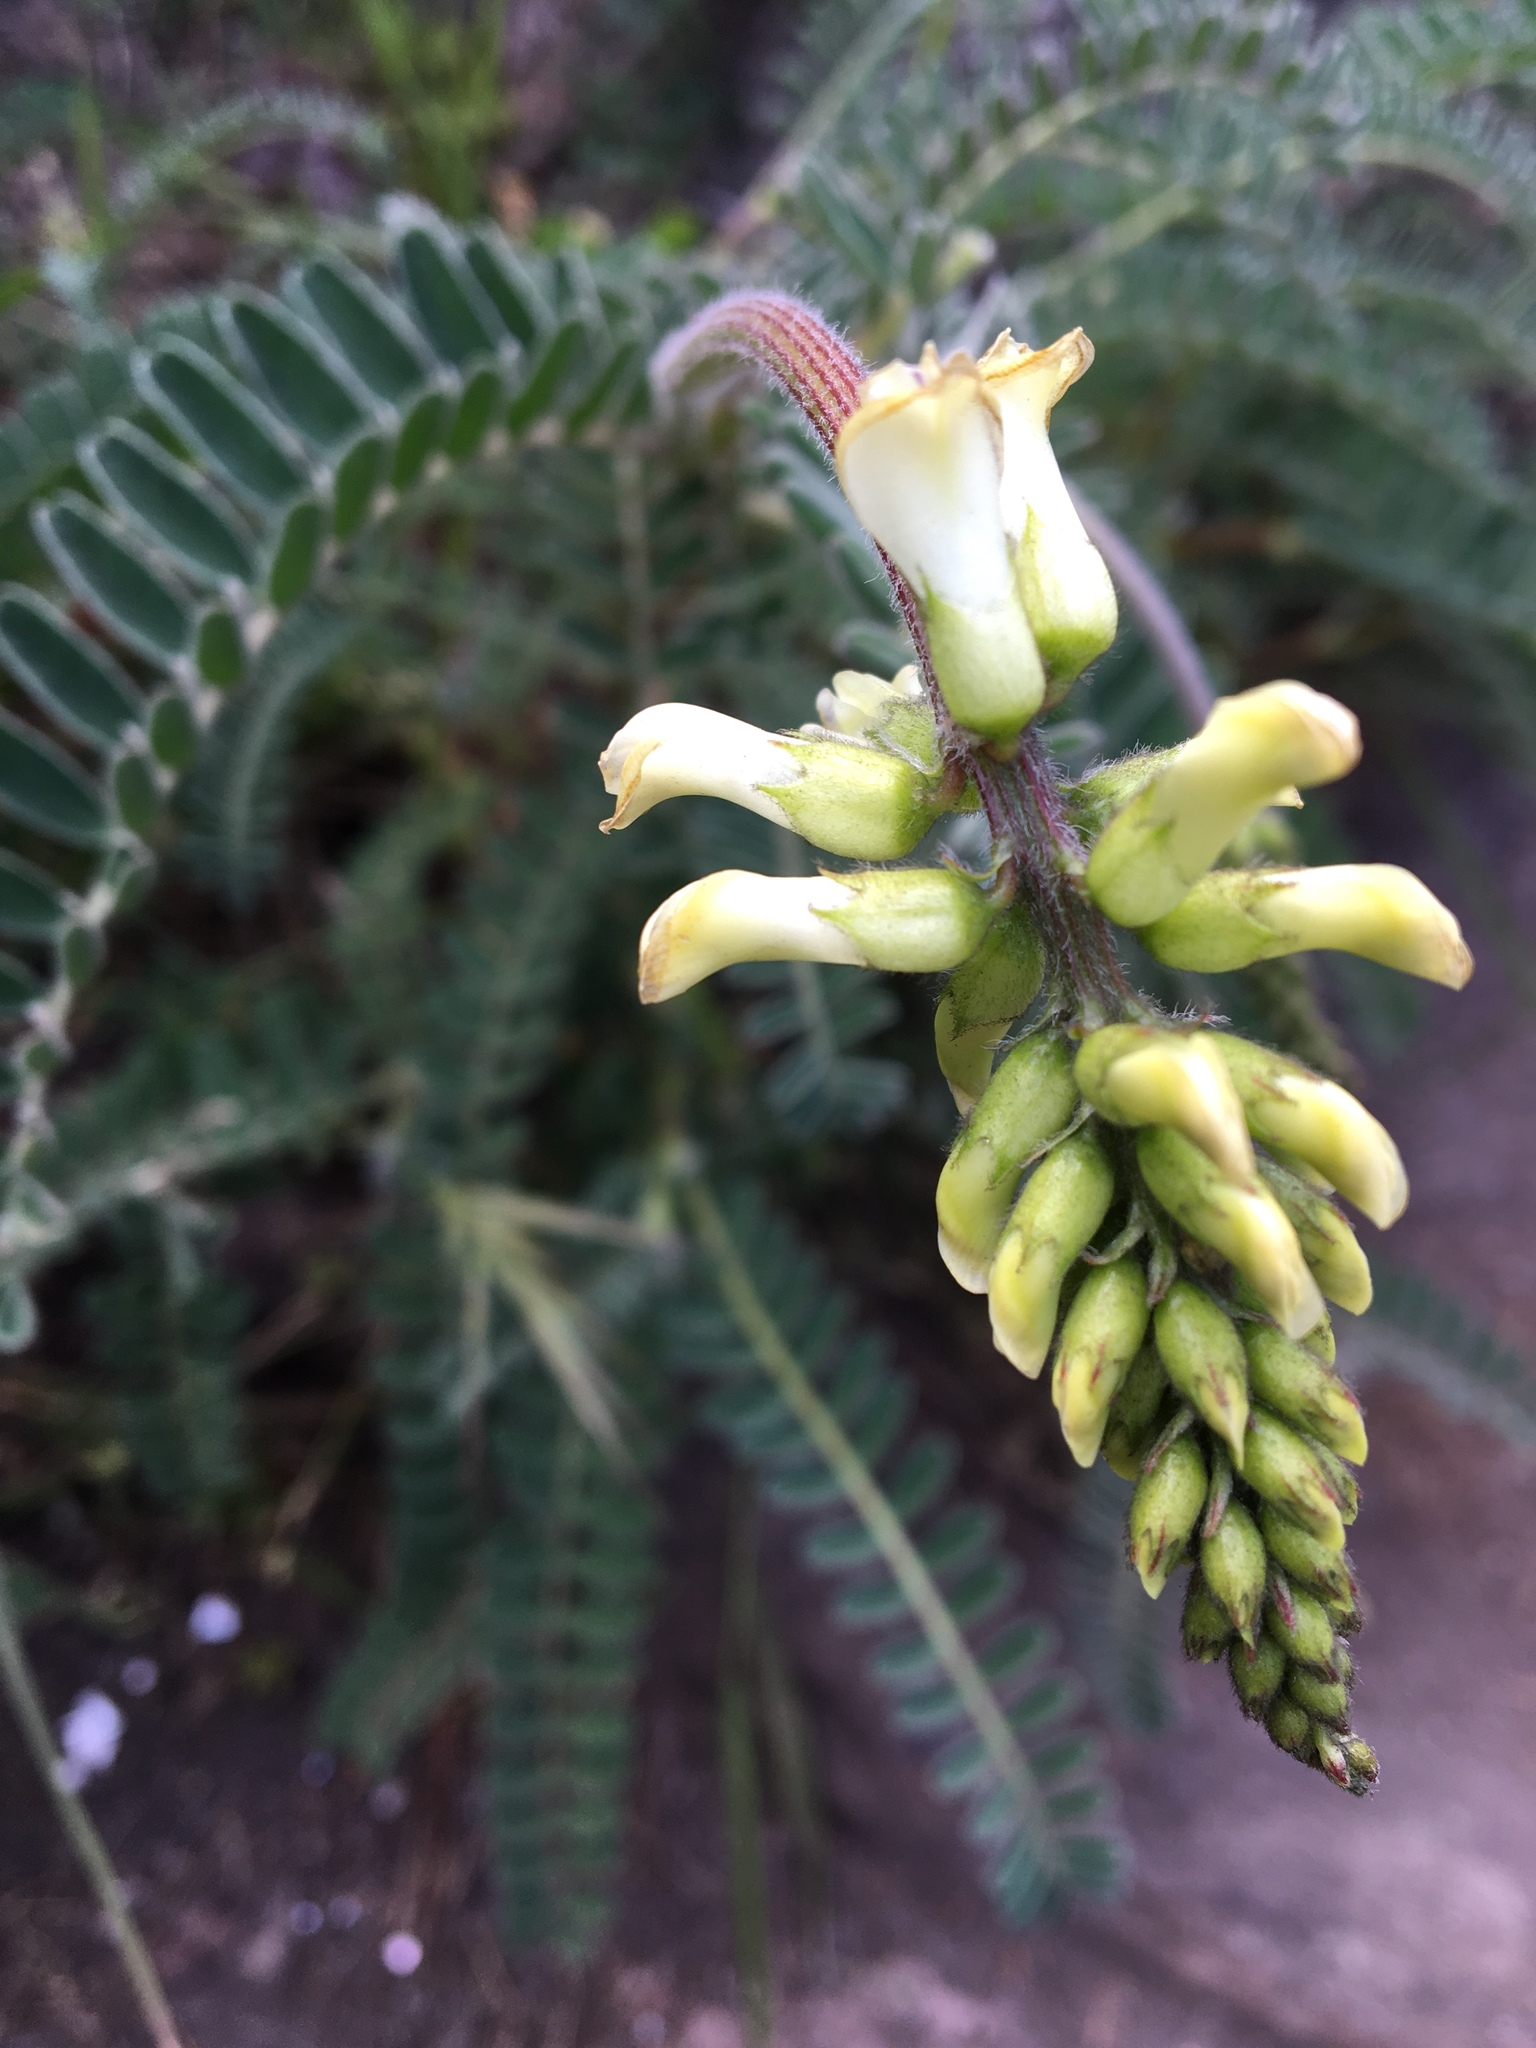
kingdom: Plantae
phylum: Tracheophyta
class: Magnoliopsida
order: Fabales
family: Fabaceae
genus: Astragalus
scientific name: Astragalus nuttallii
